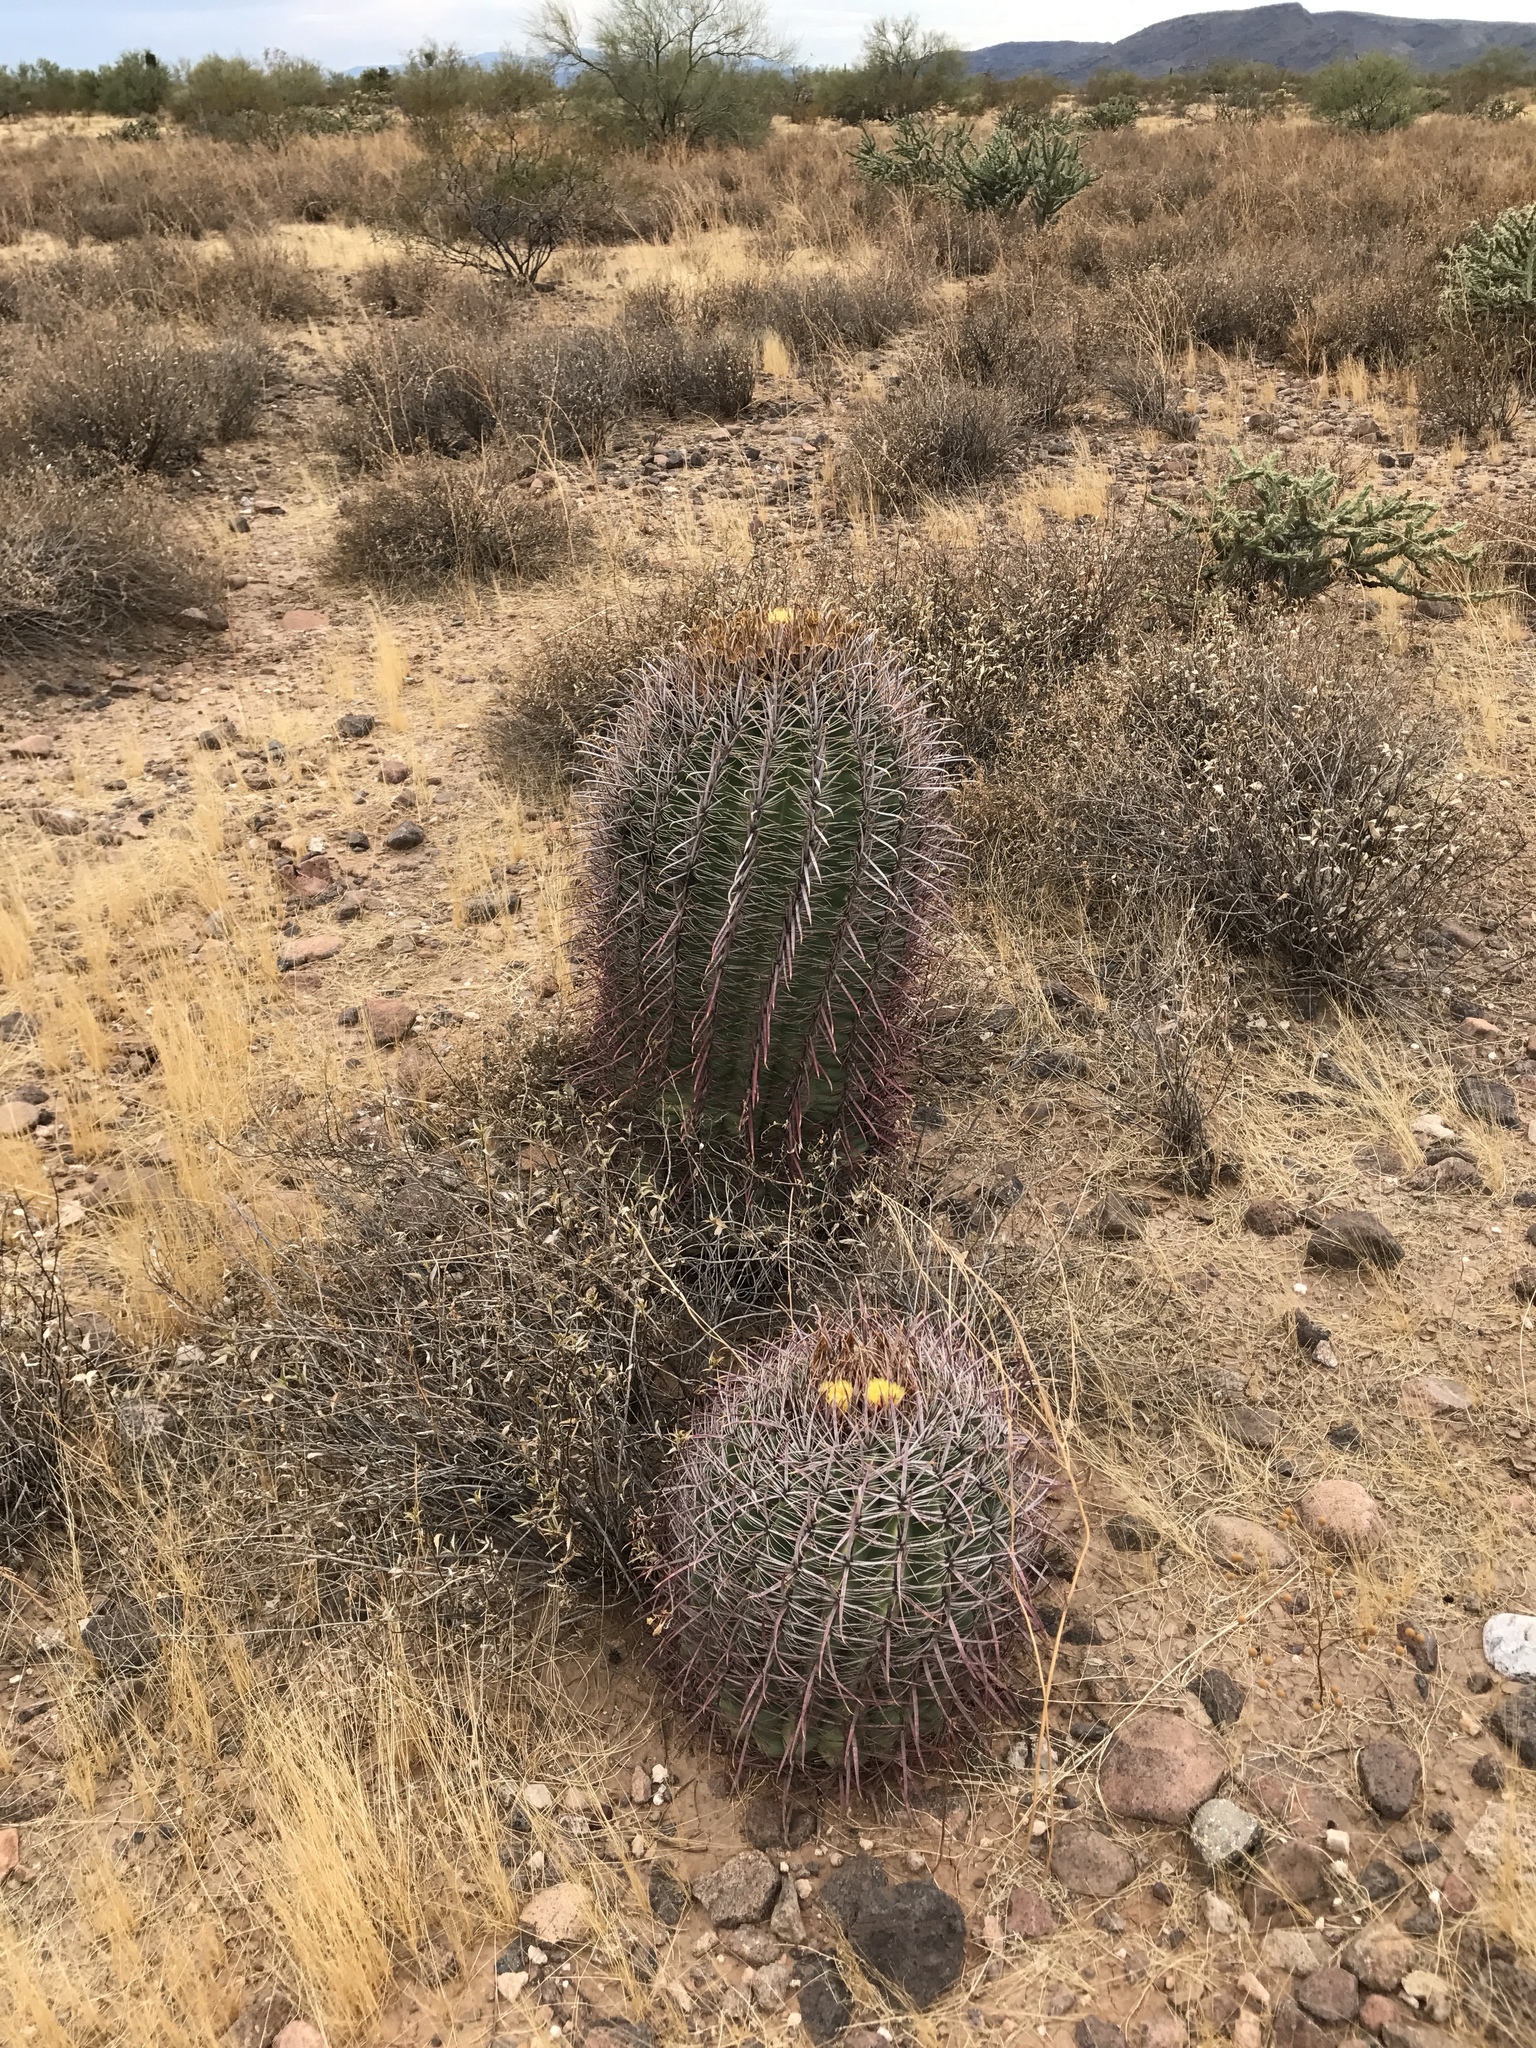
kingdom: Plantae
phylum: Tracheophyta
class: Magnoliopsida
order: Caryophyllales
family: Cactaceae
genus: Ferocactus
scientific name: Ferocactus cylindraceus
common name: California barrel cactus
